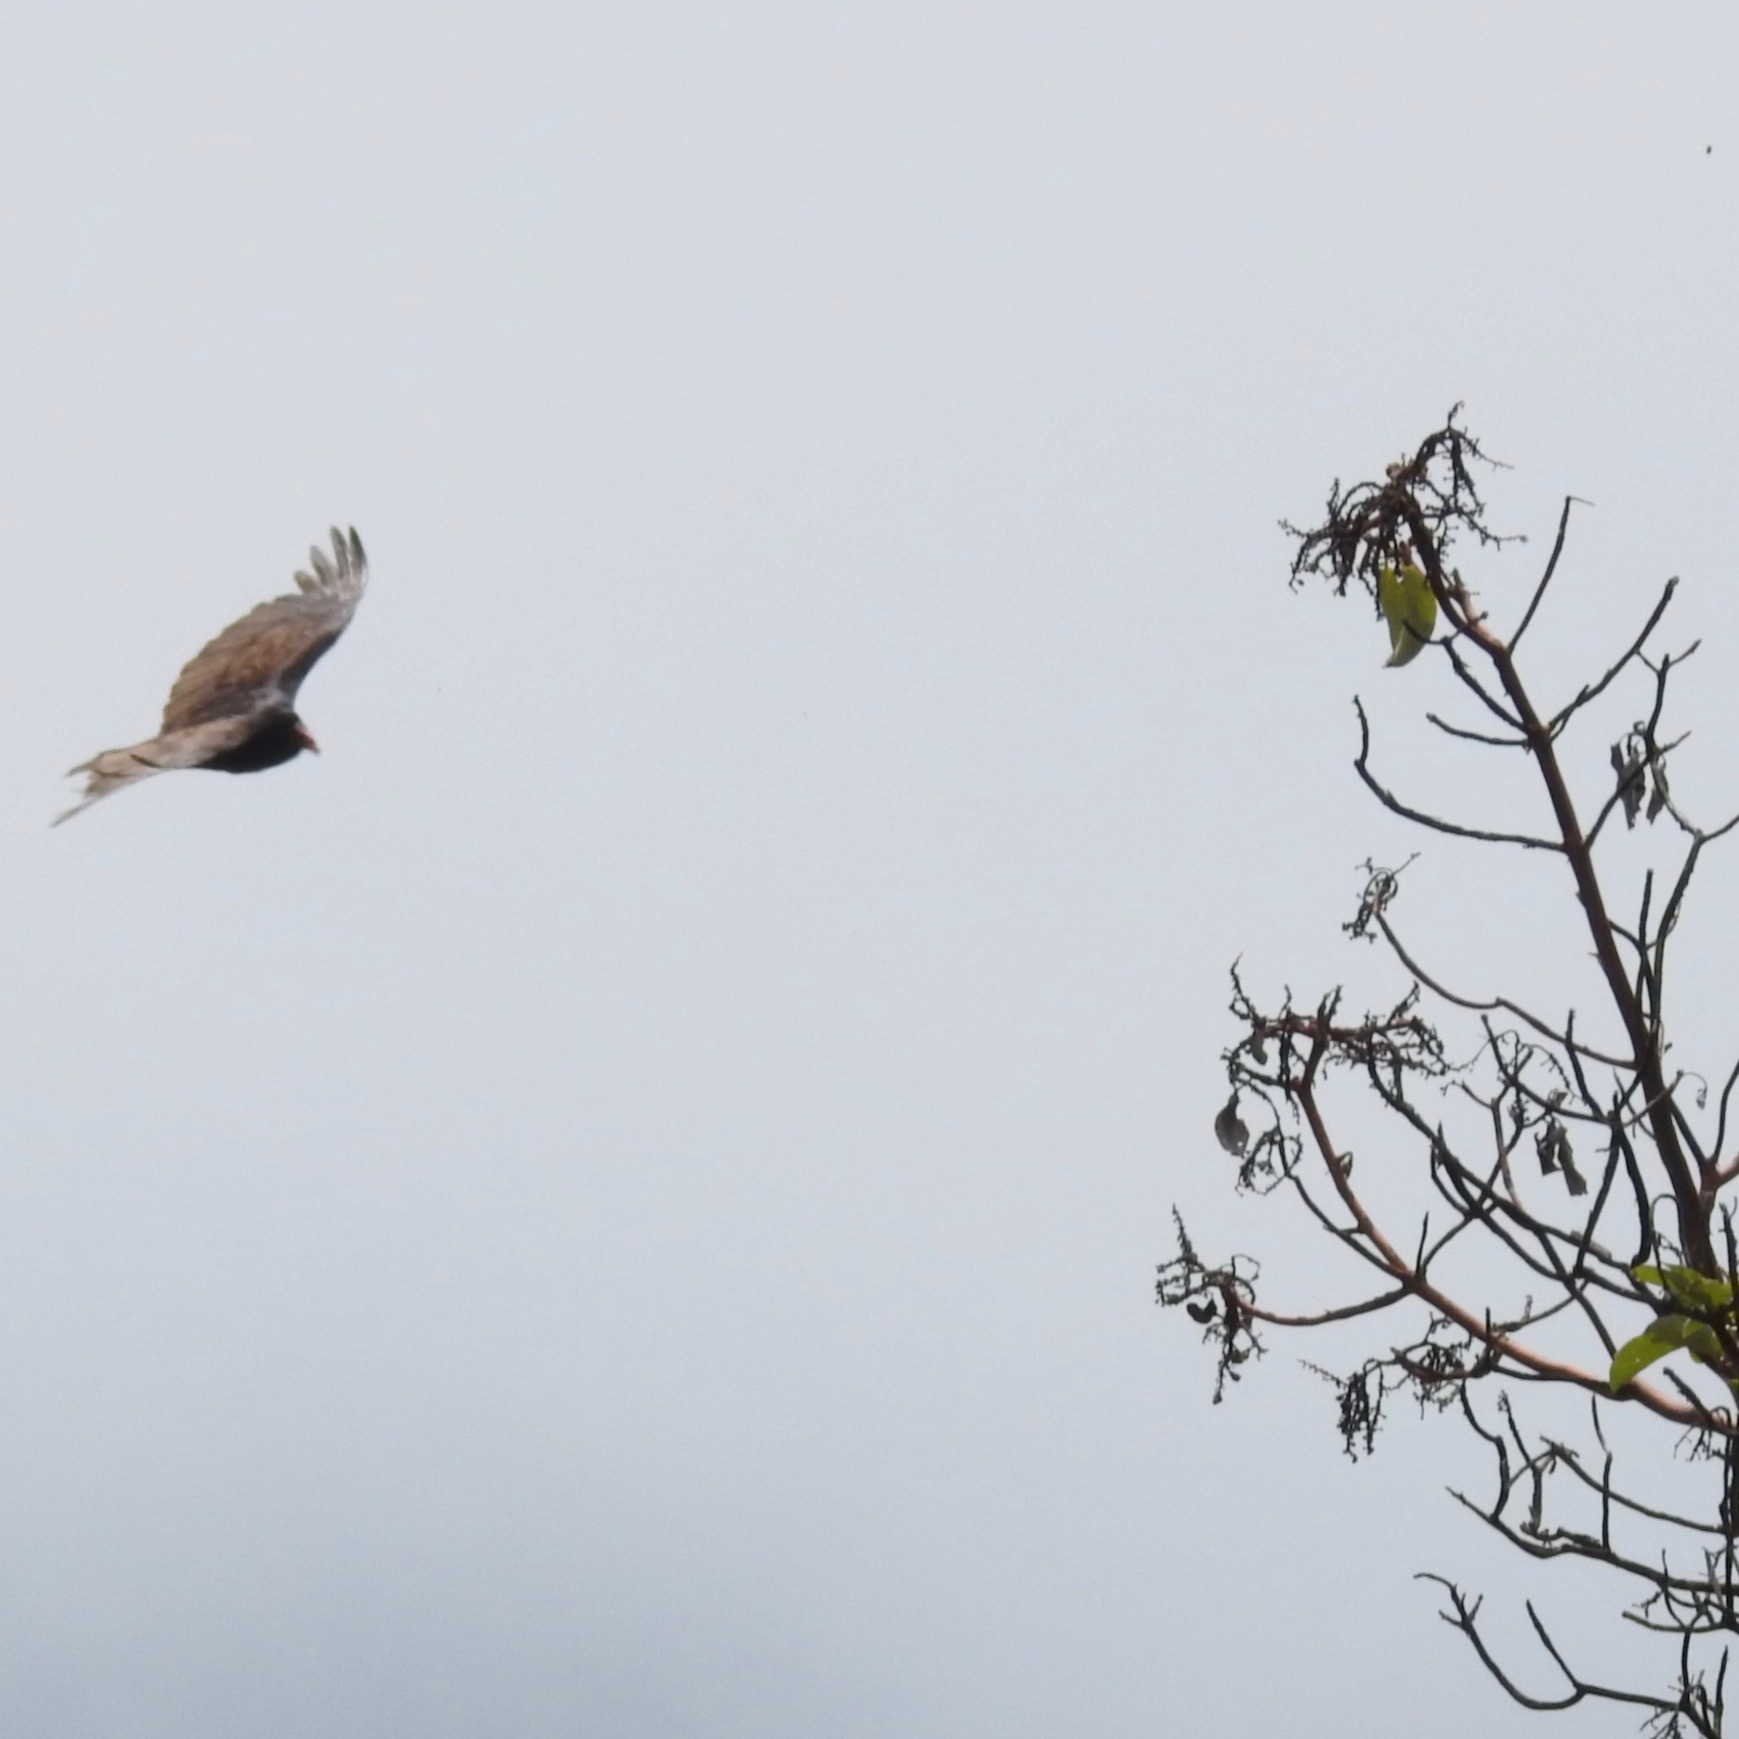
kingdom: Animalia
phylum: Chordata
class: Aves
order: Accipitriformes
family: Cathartidae
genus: Cathartes
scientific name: Cathartes aura
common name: Turkey vulture
